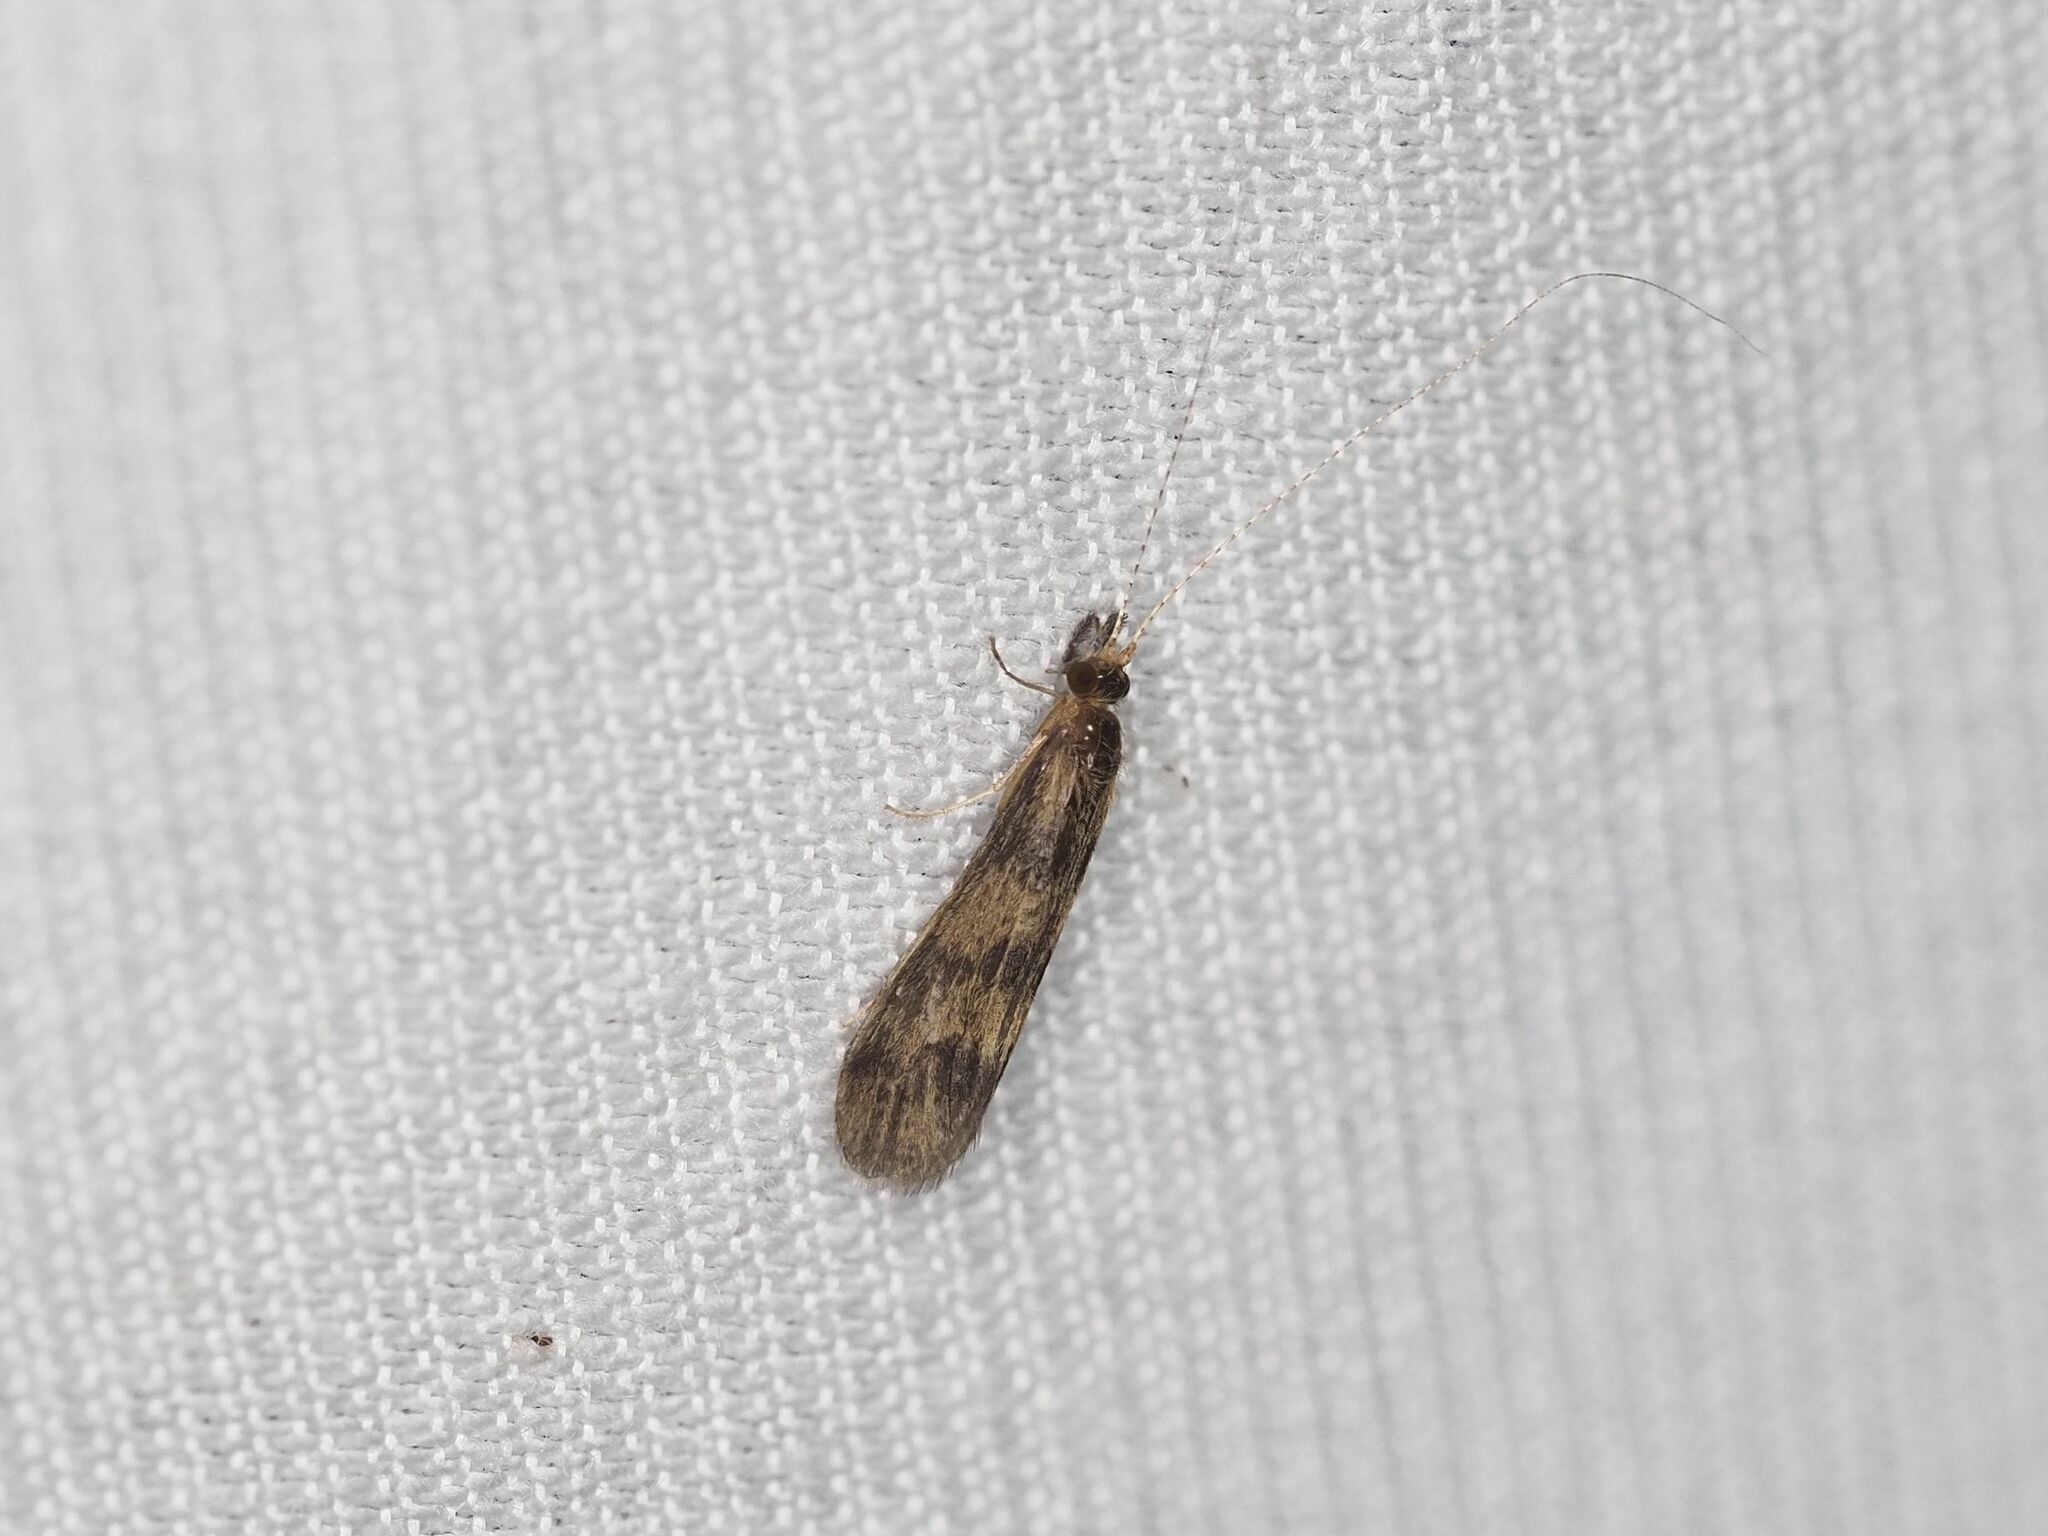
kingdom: Animalia
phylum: Arthropoda
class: Insecta
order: Trichoptera
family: Leptoceridae
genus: Mystacides
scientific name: Mystacides longicornis
